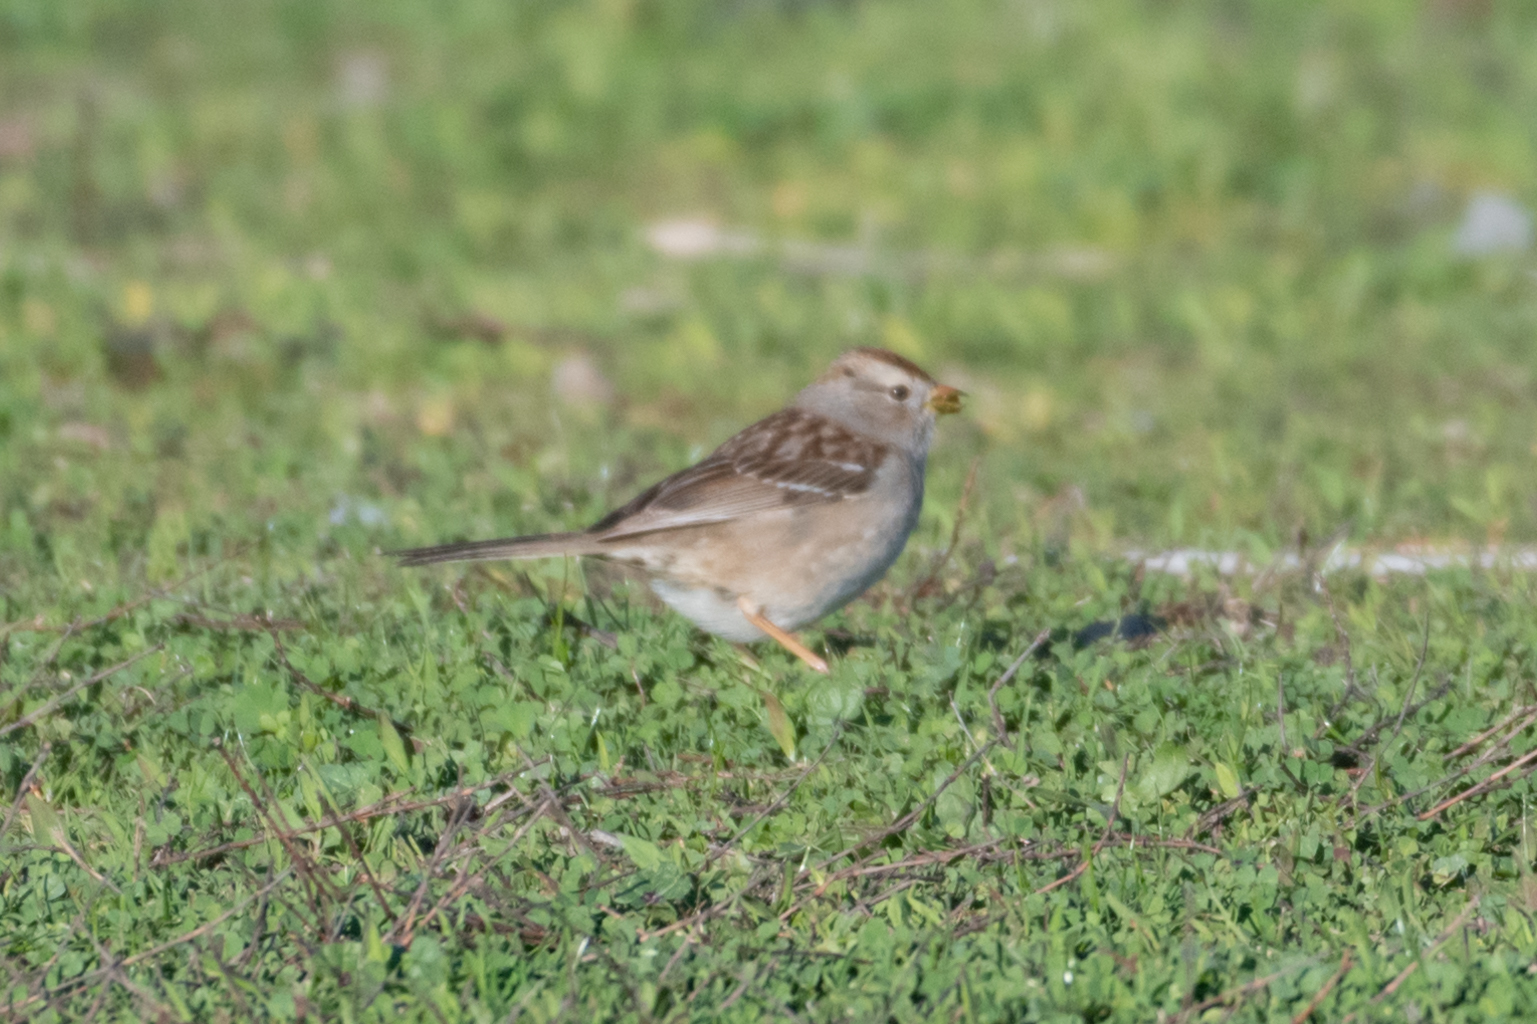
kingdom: Animalia
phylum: Chordata
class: Aves
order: Passeriformes
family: Passerellidae
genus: Zonotrichia
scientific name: Zonotrichia leucophrys
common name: White-crowned sparrow
